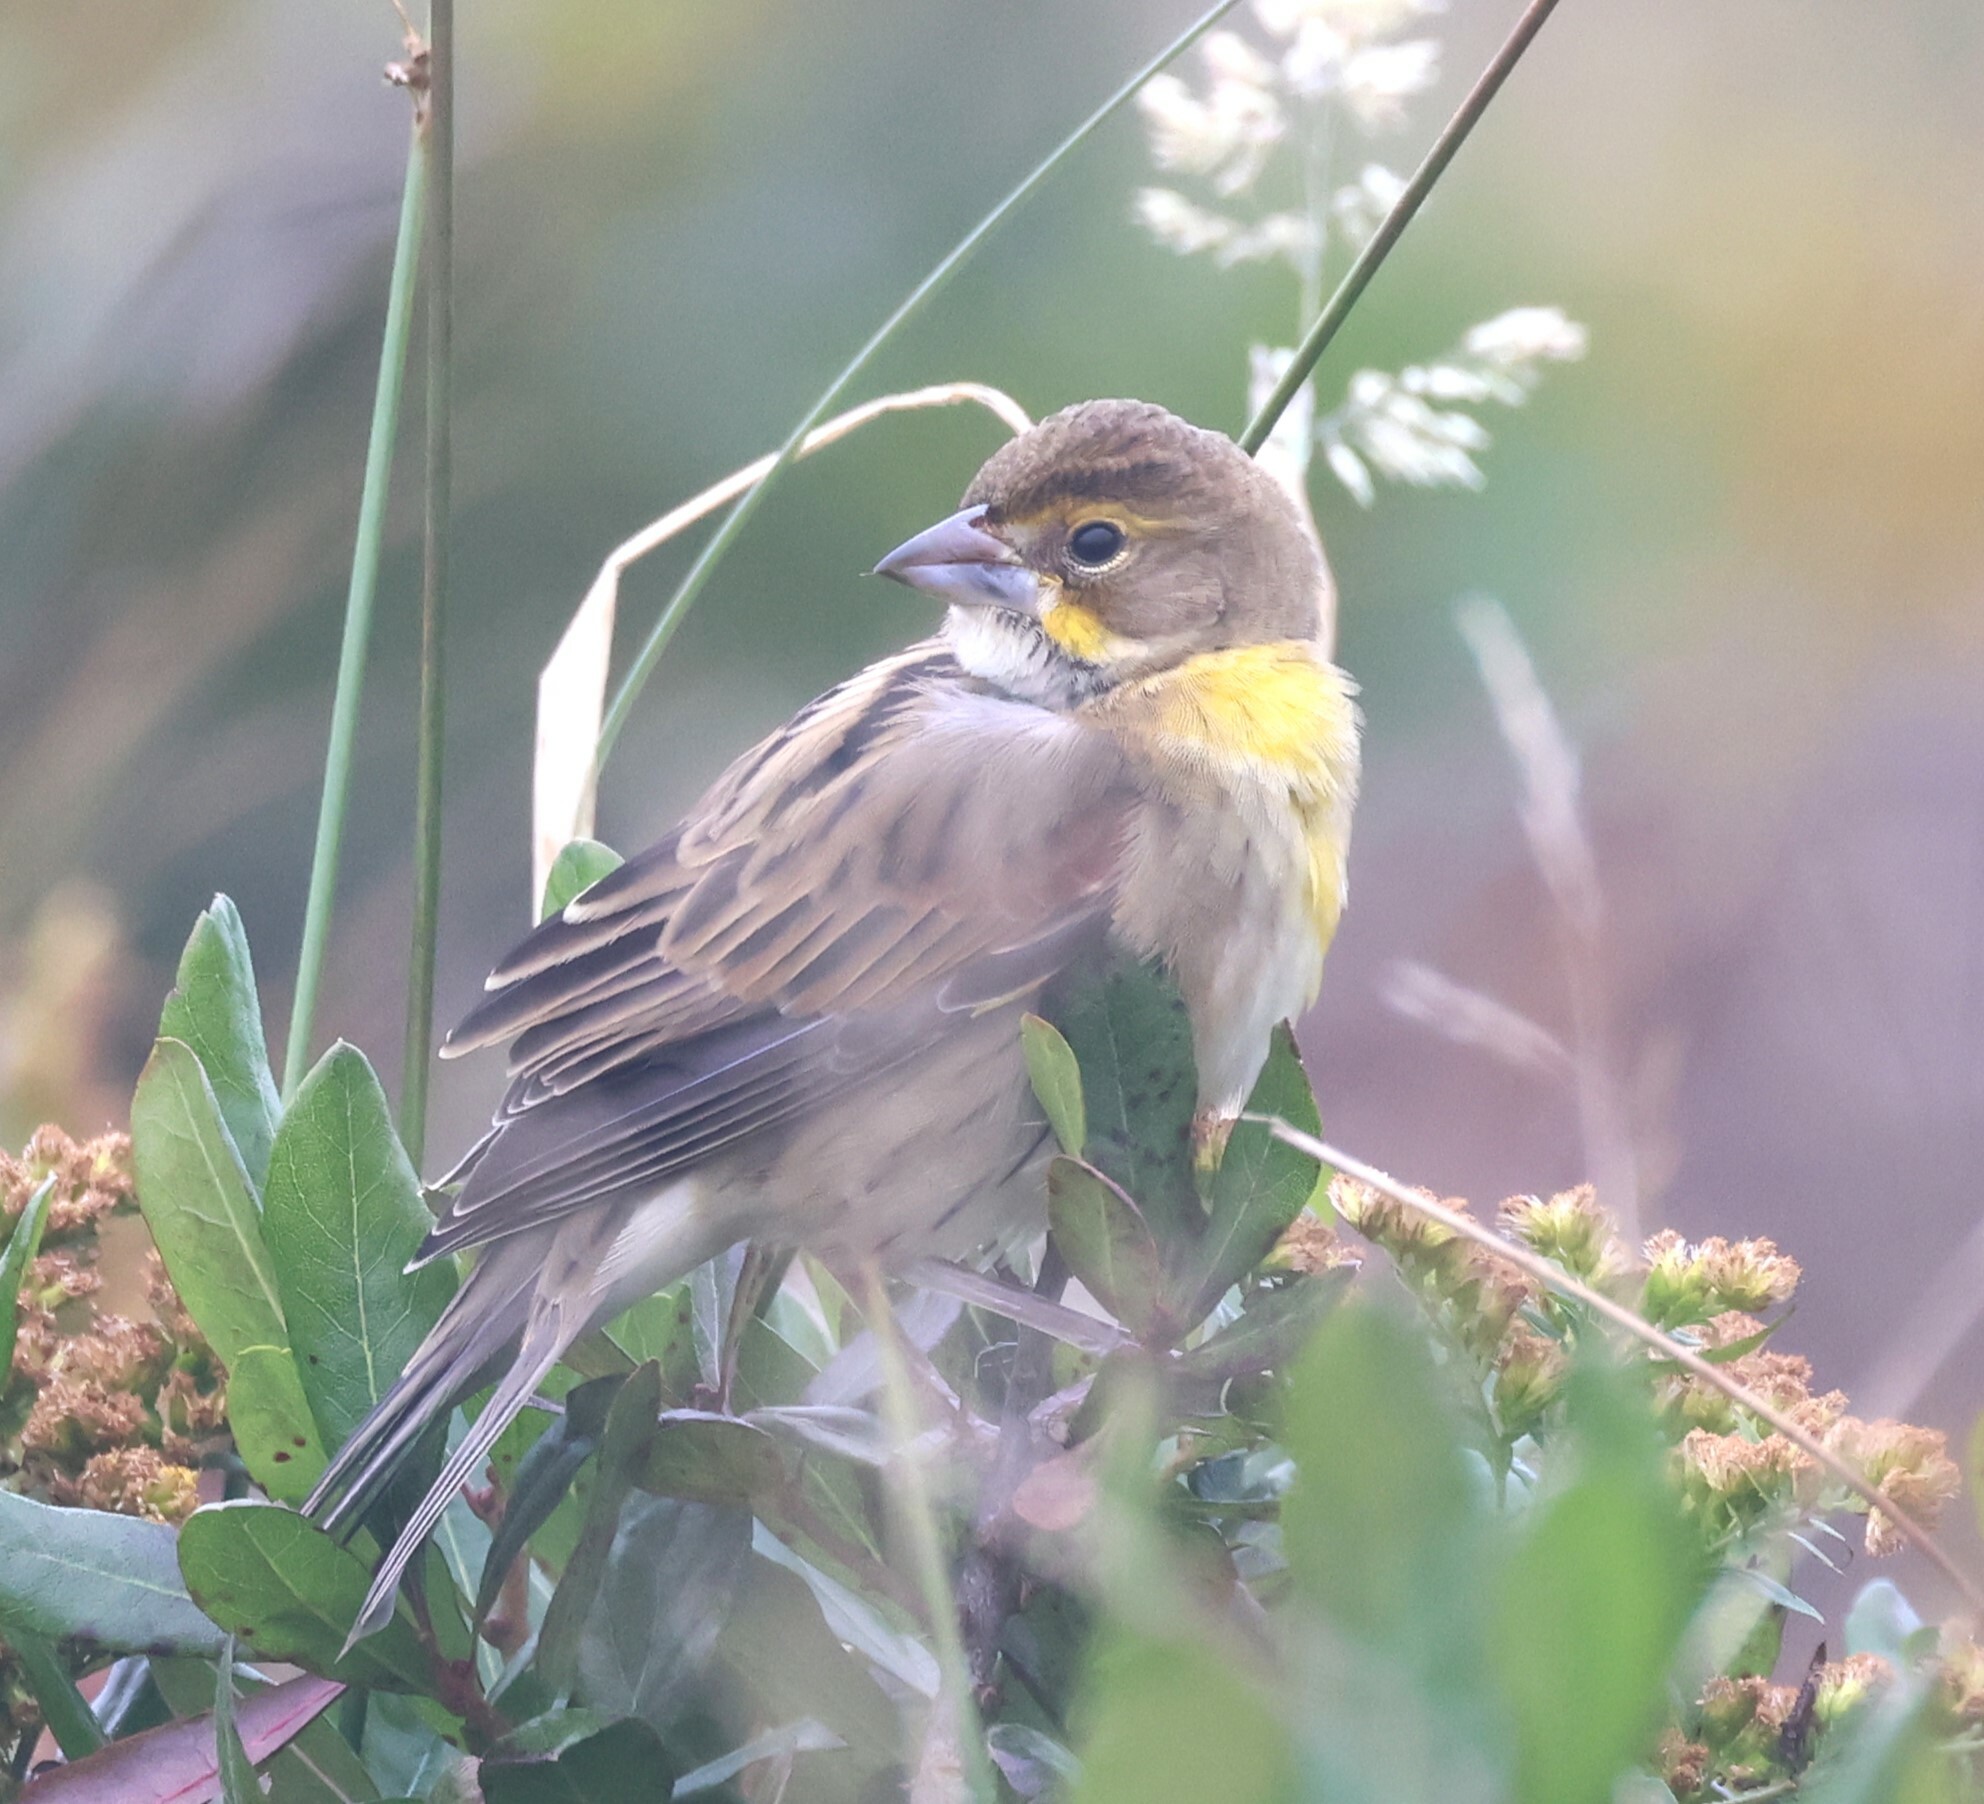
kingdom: Animalia
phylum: Chordata
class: Aves
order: Passeriformes
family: Cardinalidae
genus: Spiza
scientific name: Spiza americana
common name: Dickcissel
